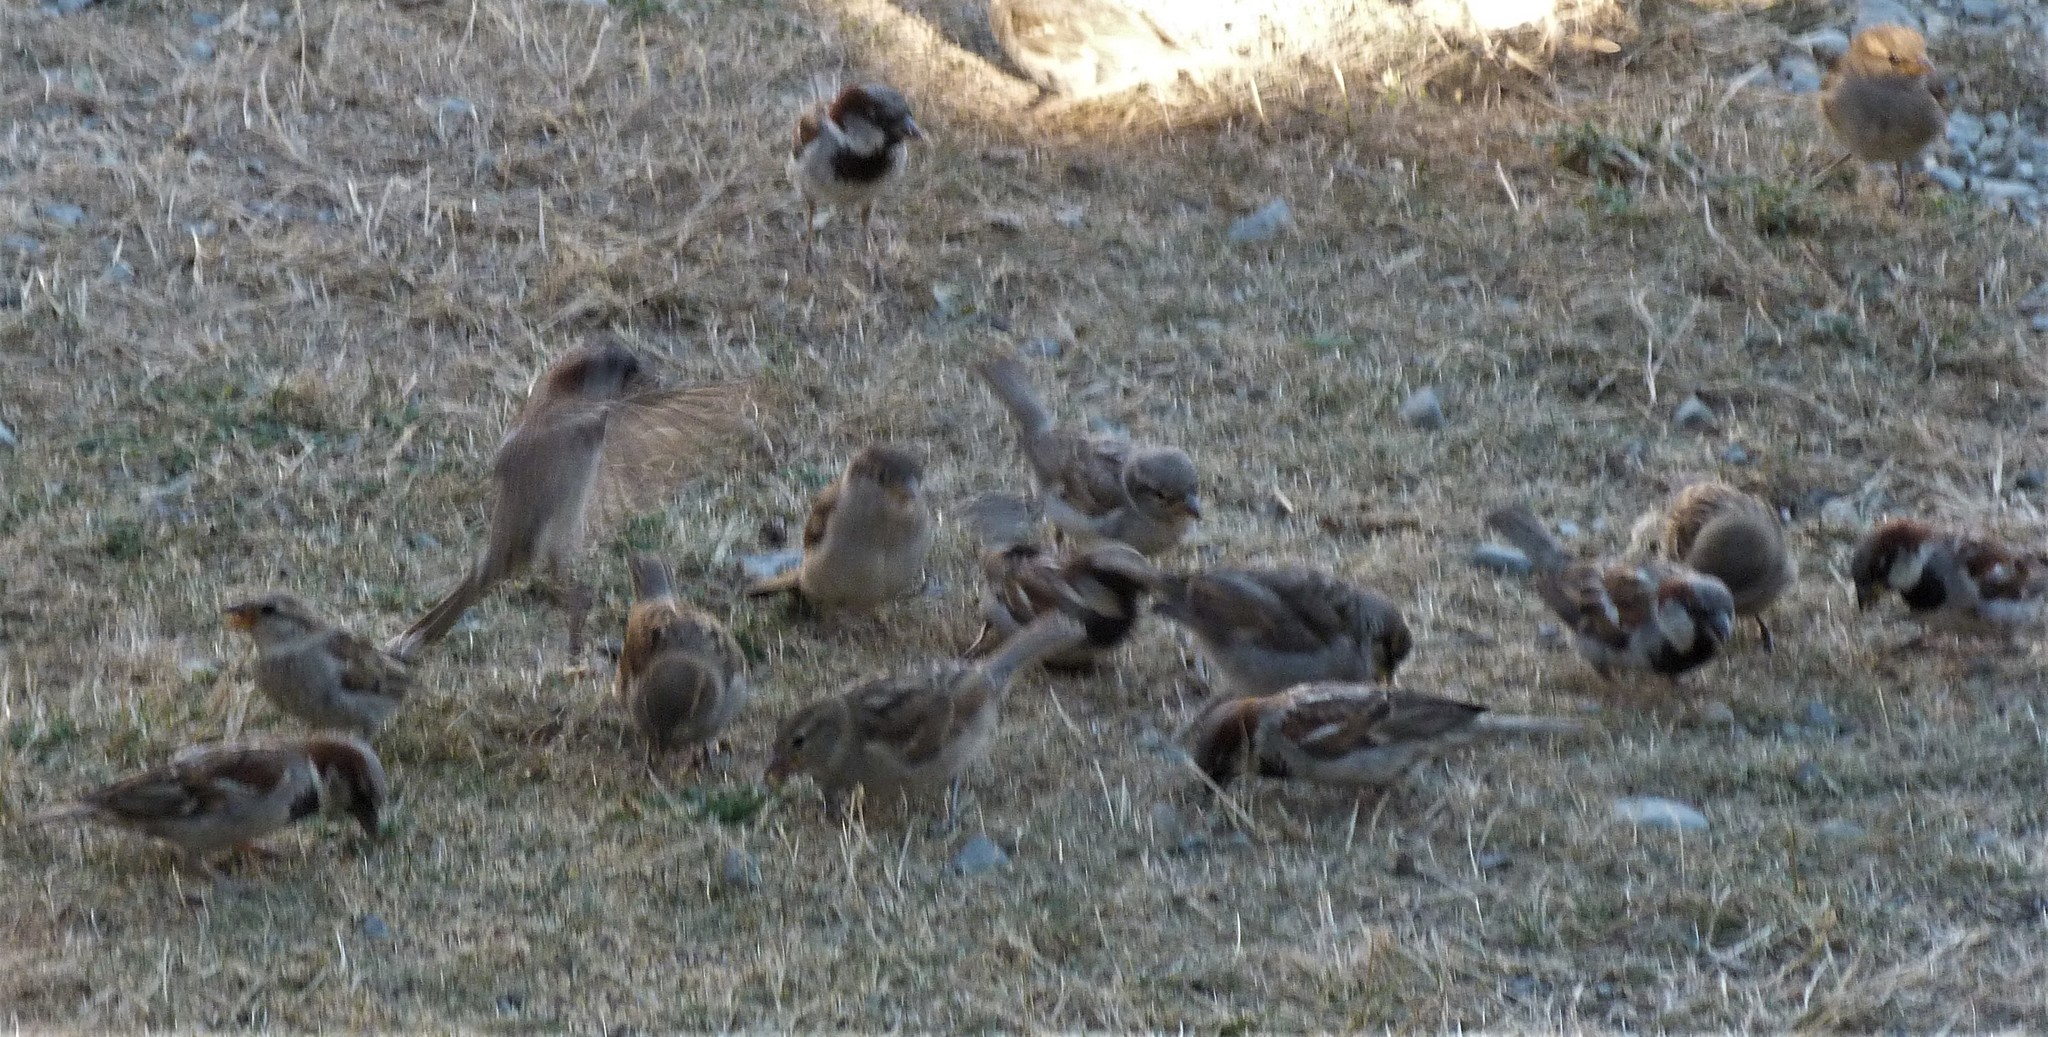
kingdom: Animalia
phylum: Chordata
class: Aves
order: Passeriformes
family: Passeridae
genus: Passer
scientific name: Passer domesticus
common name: House sparrow
